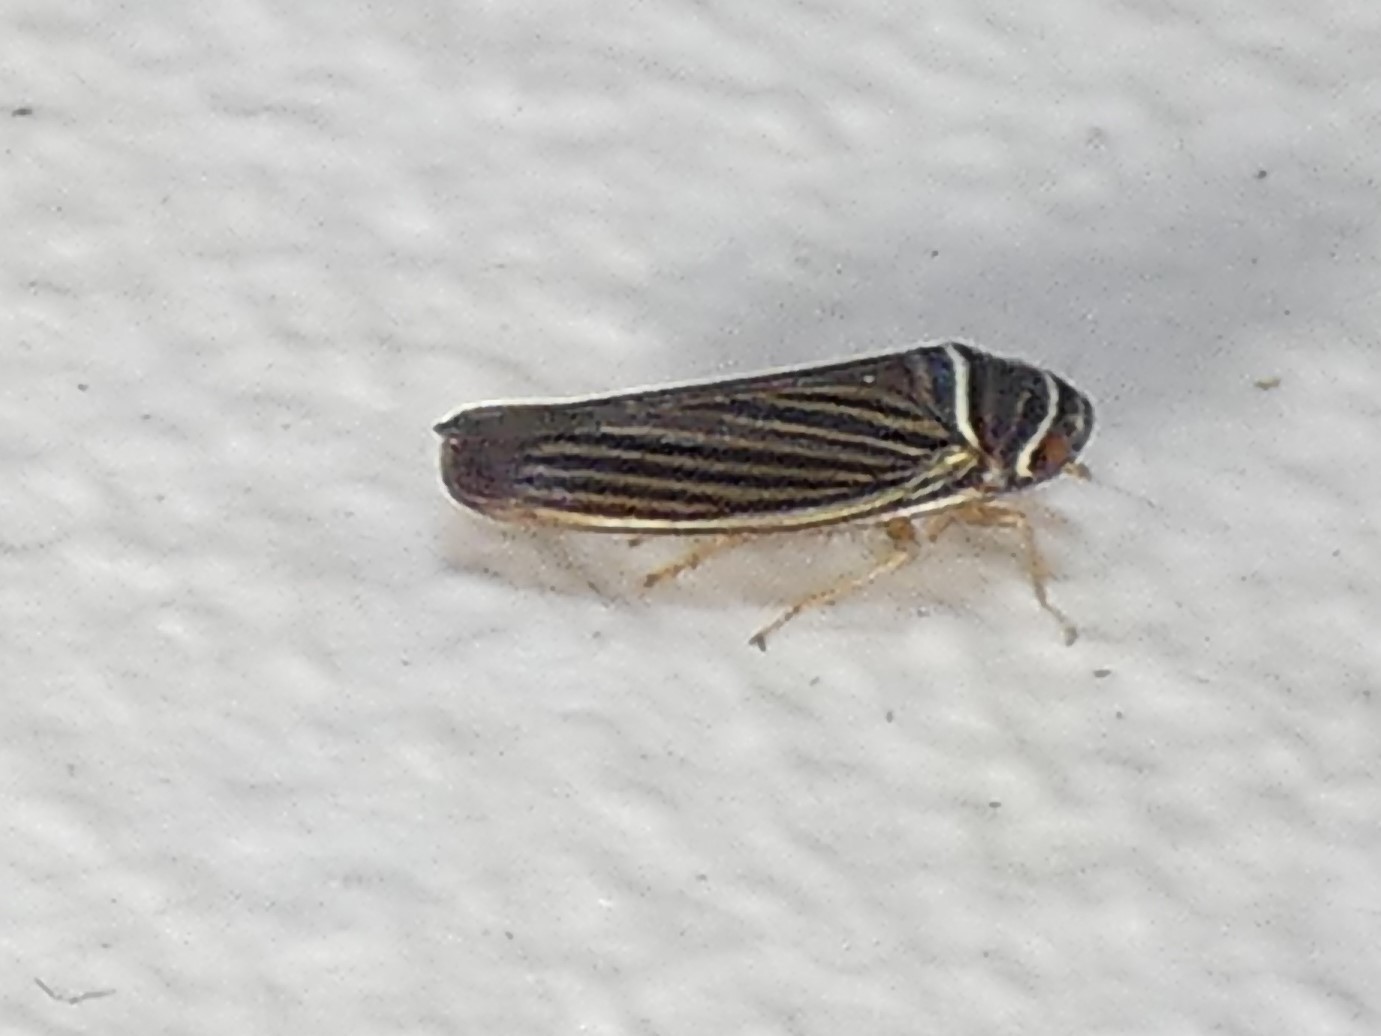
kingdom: Animalia
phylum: Arthropoda
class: Insecta
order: Hemiptera
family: Cicadellidae
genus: Tylozygus
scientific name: Tylozygus bifidus
